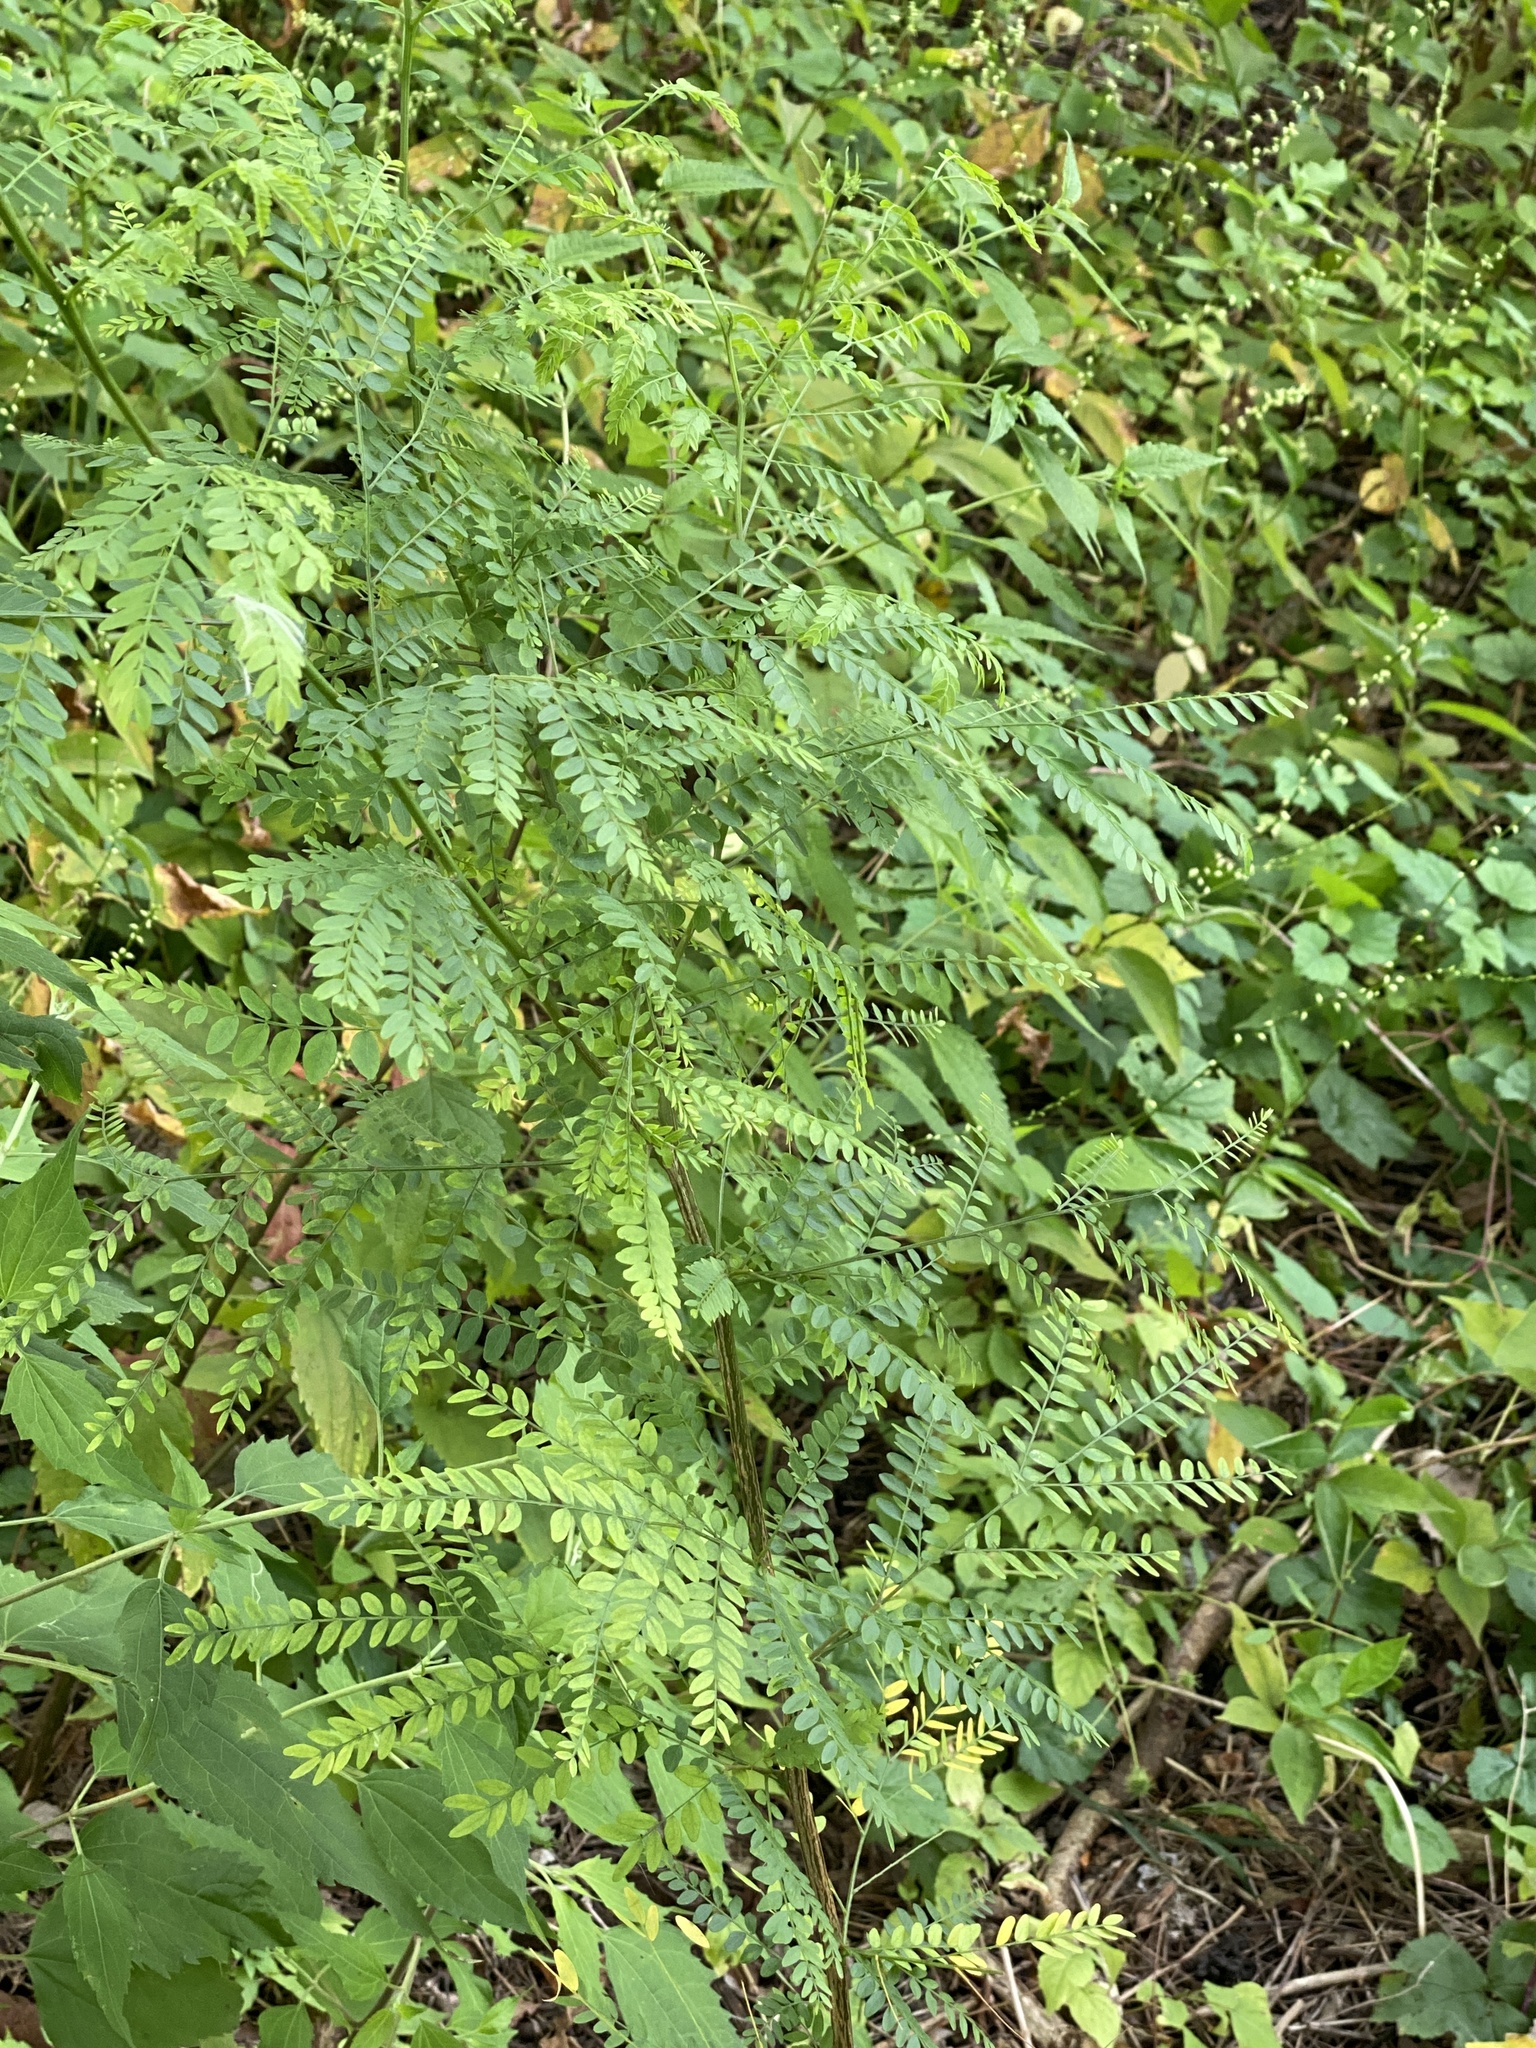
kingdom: Plantae
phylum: Tracheophyta
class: Magnoliopsida
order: Fabales
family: Fabaceae
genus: Gleditsia
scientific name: Gleditsia triacanthos
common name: Common honeylocust
